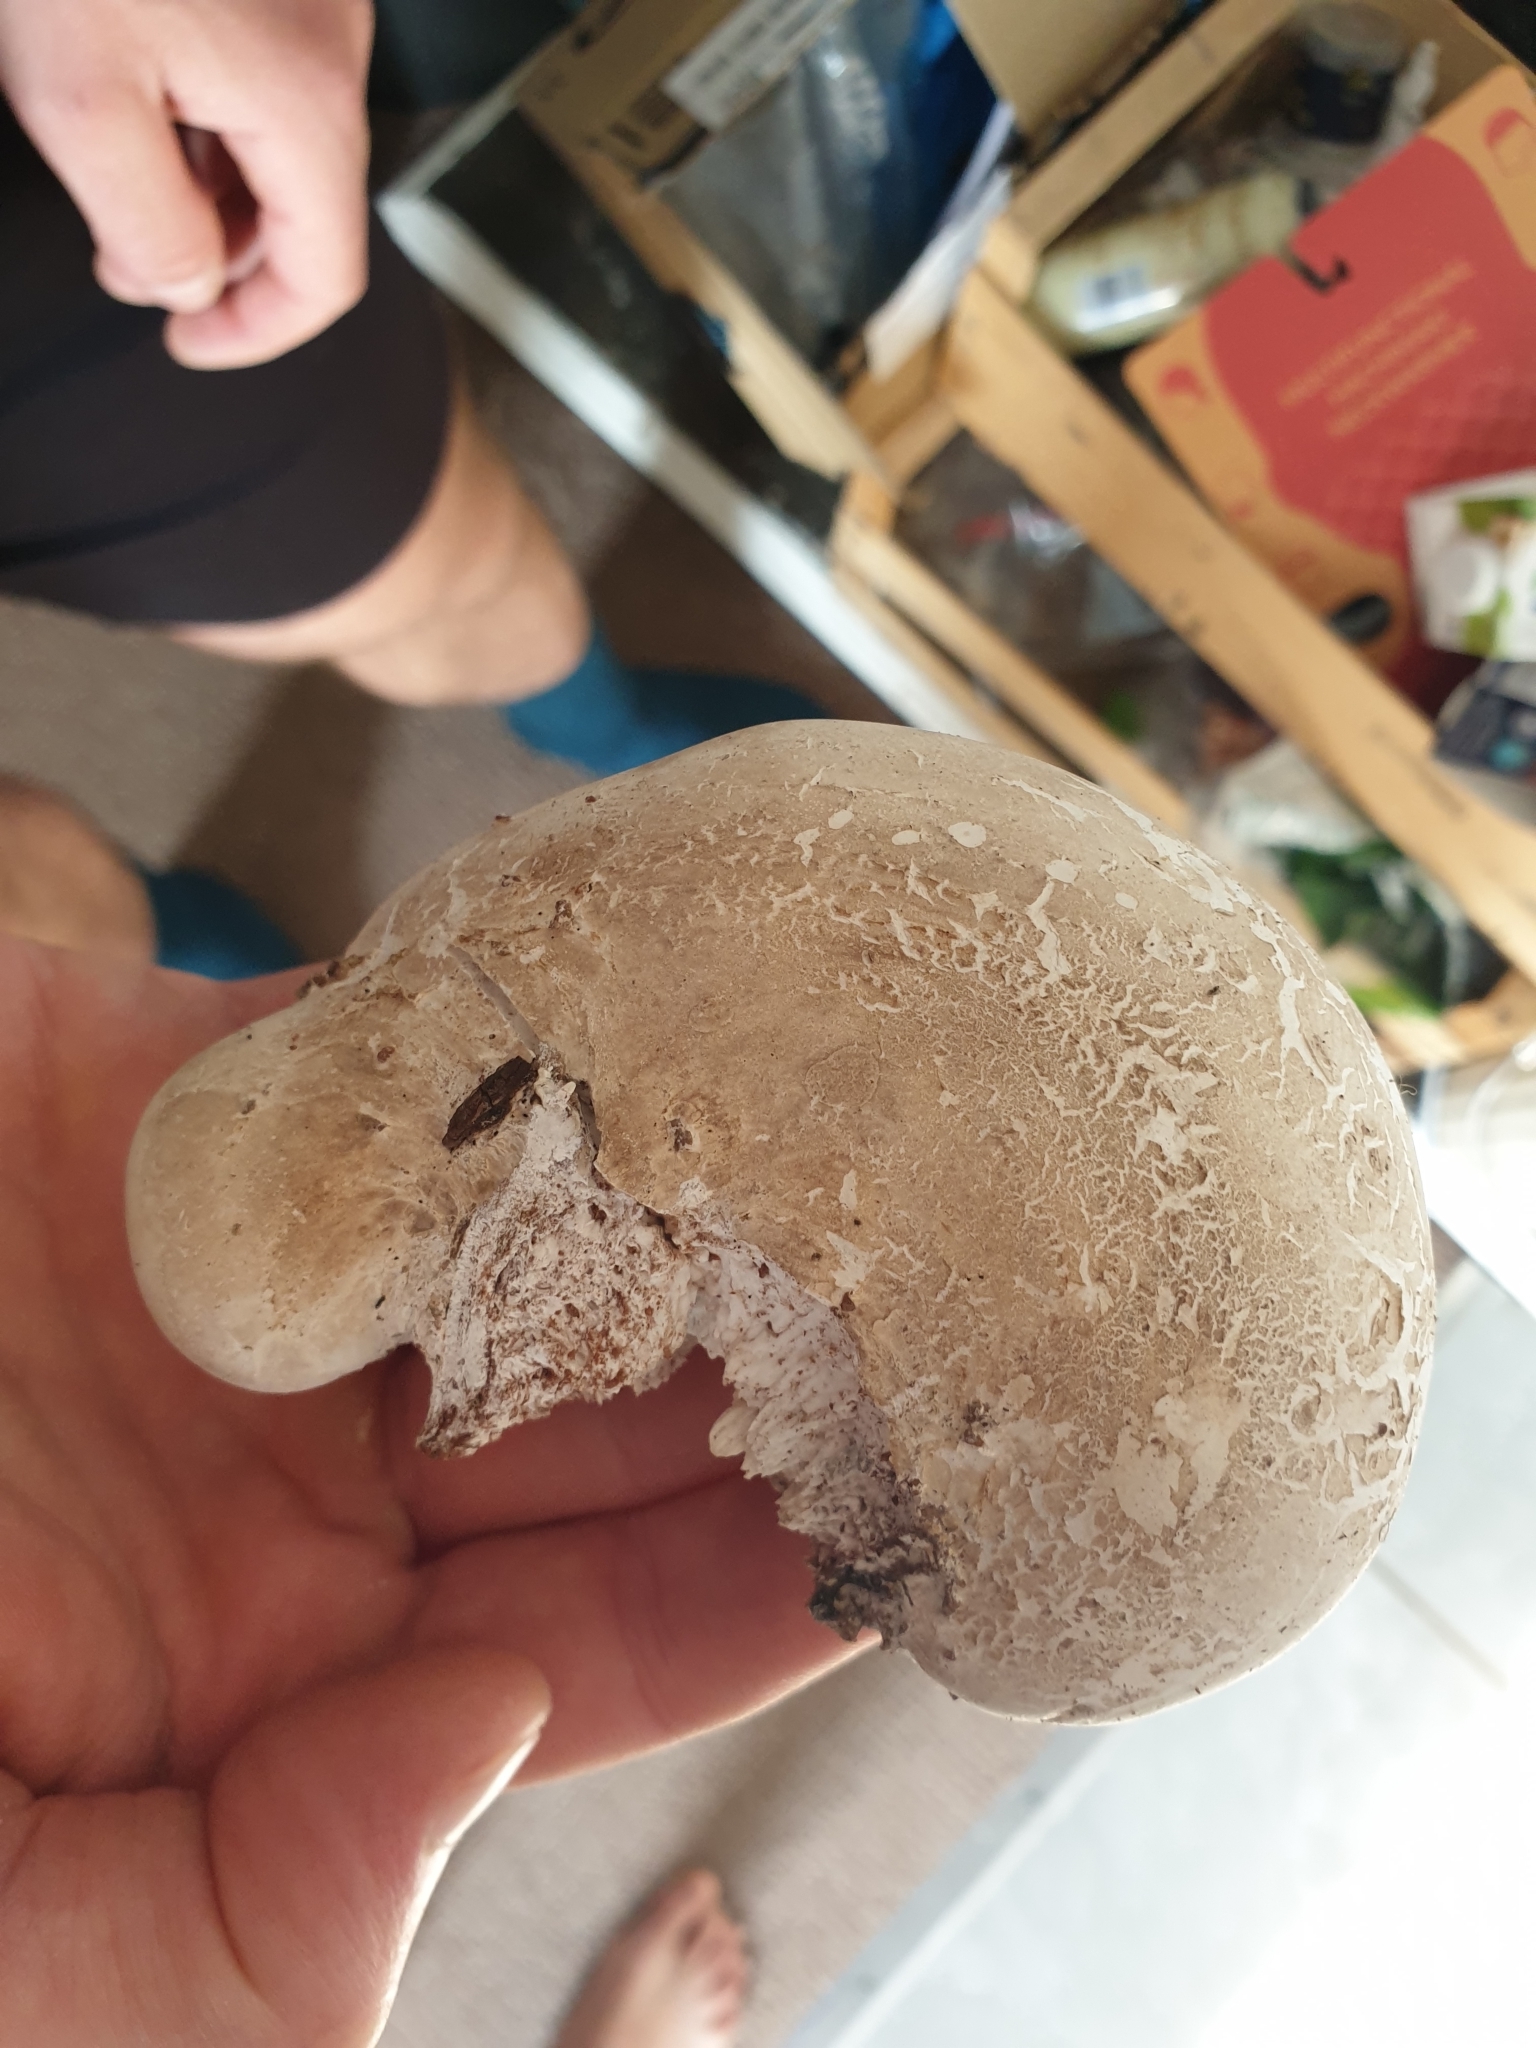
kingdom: Fungi
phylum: Basidiomycota
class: Agaricomycetes
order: Polyporales
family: Fomitopsidaceae
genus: Fomitopsis
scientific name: Fomitopsis betulina
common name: Birch polypore
